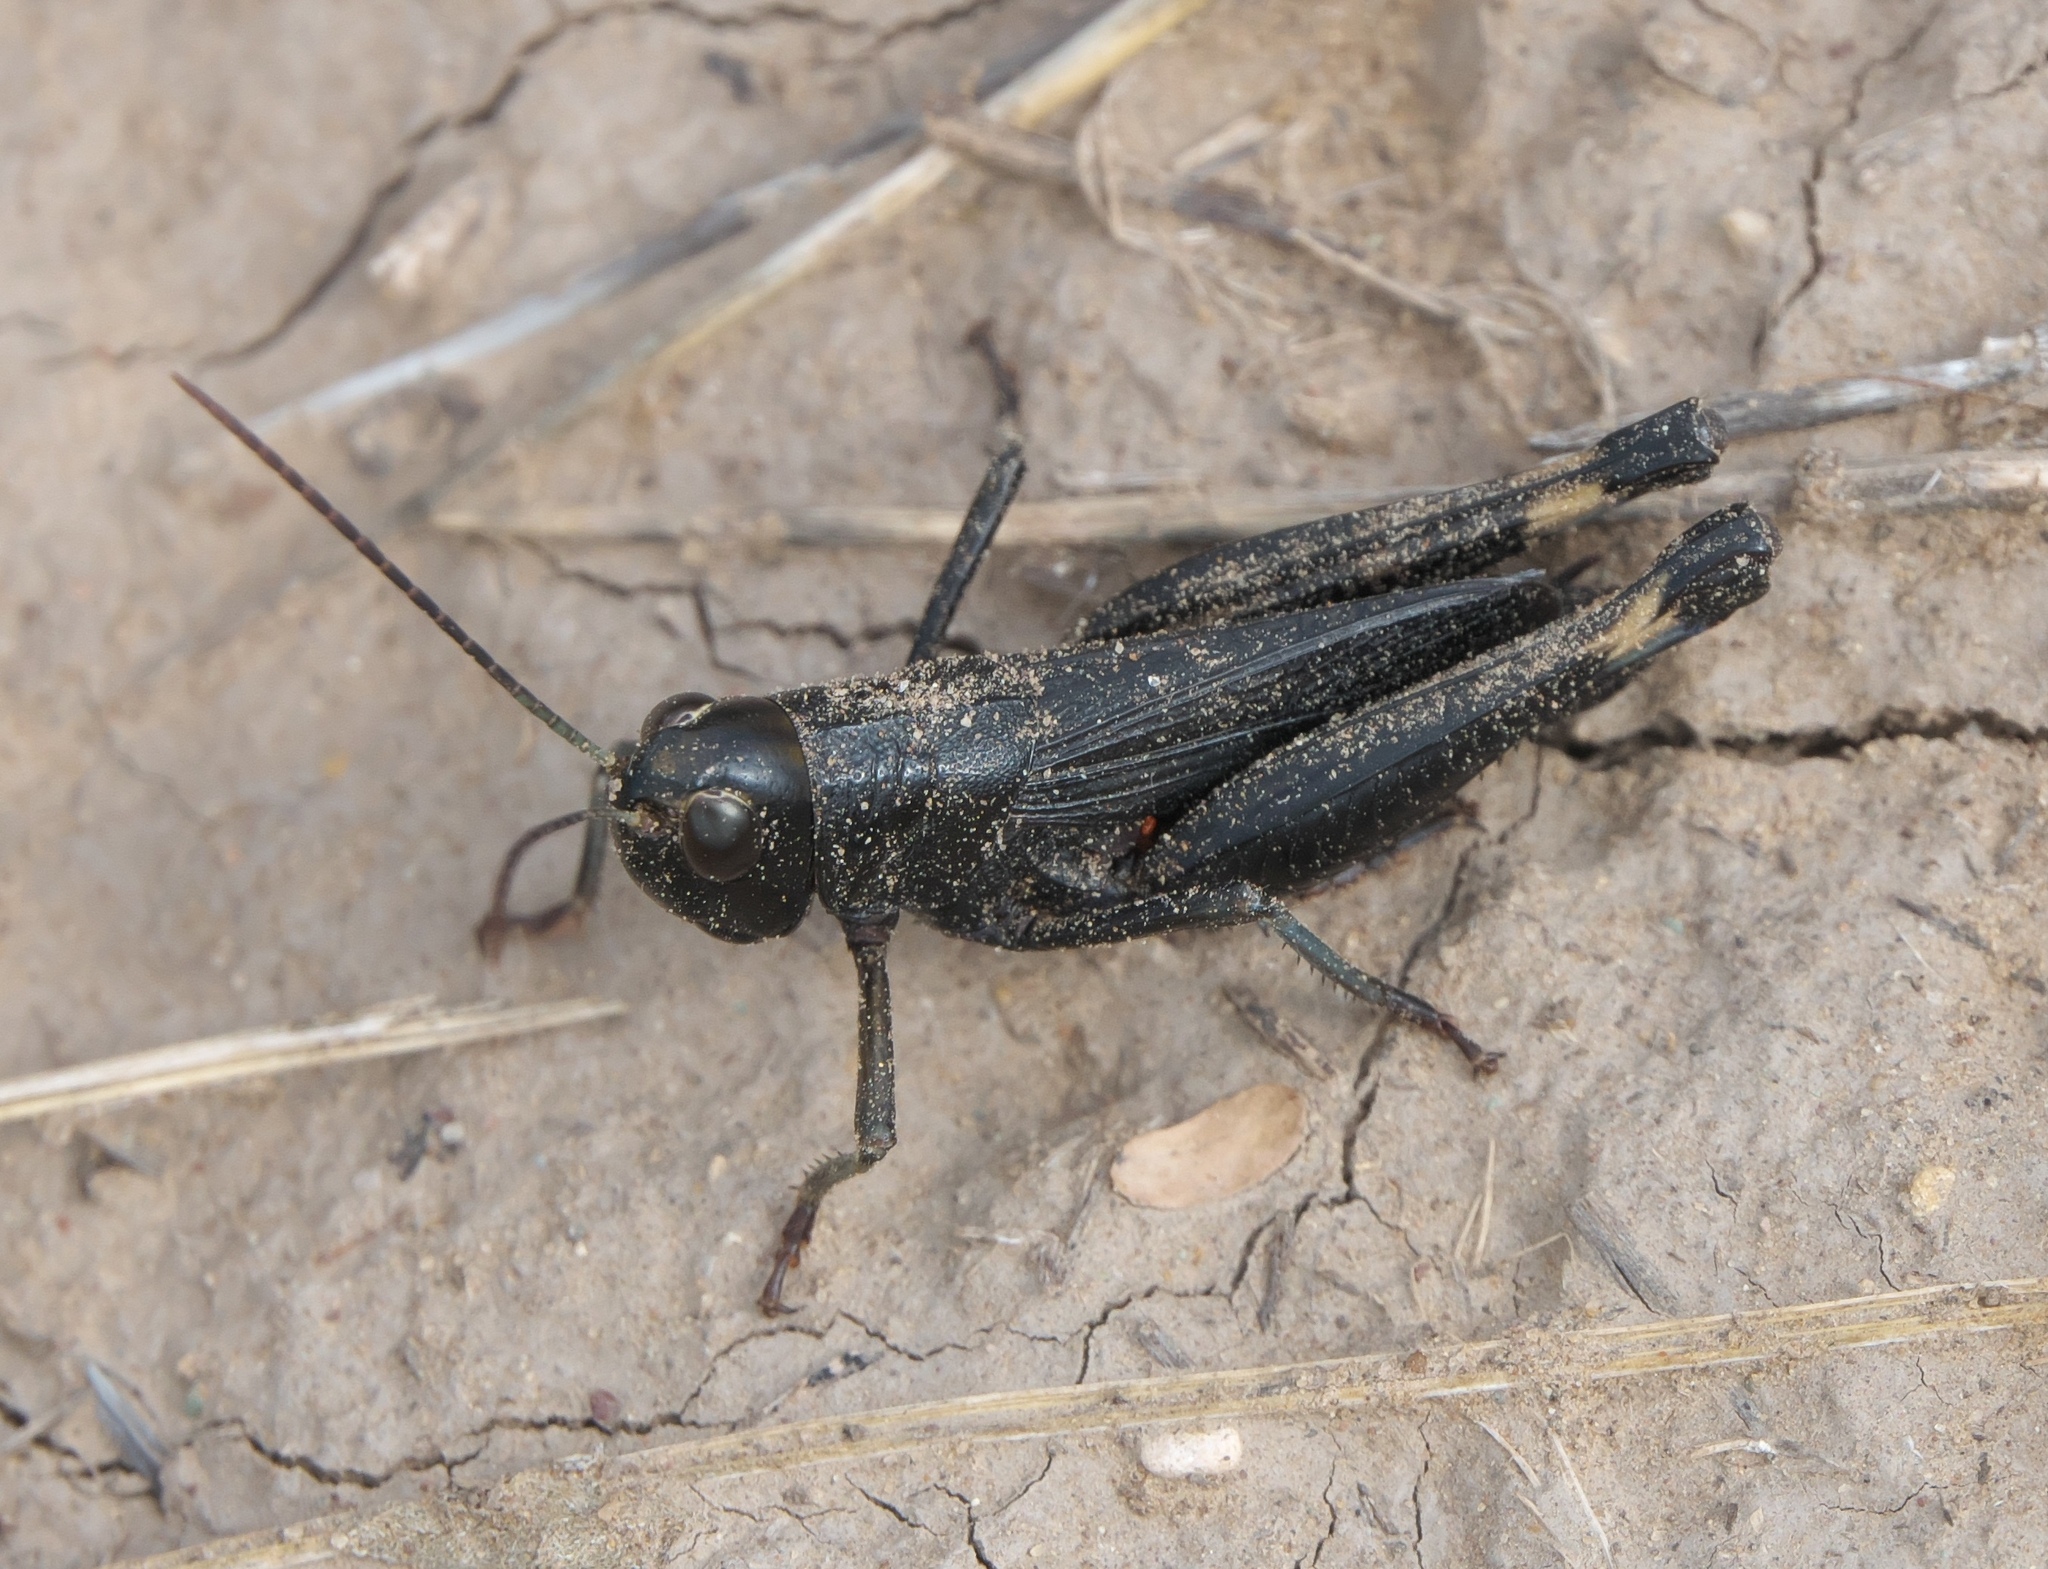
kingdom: Animalia
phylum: Arthropoda
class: Insecta
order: Orthoptera
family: Acrididae
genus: Boopedon
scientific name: Boopedon nubilum
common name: Ebony grasshopper
